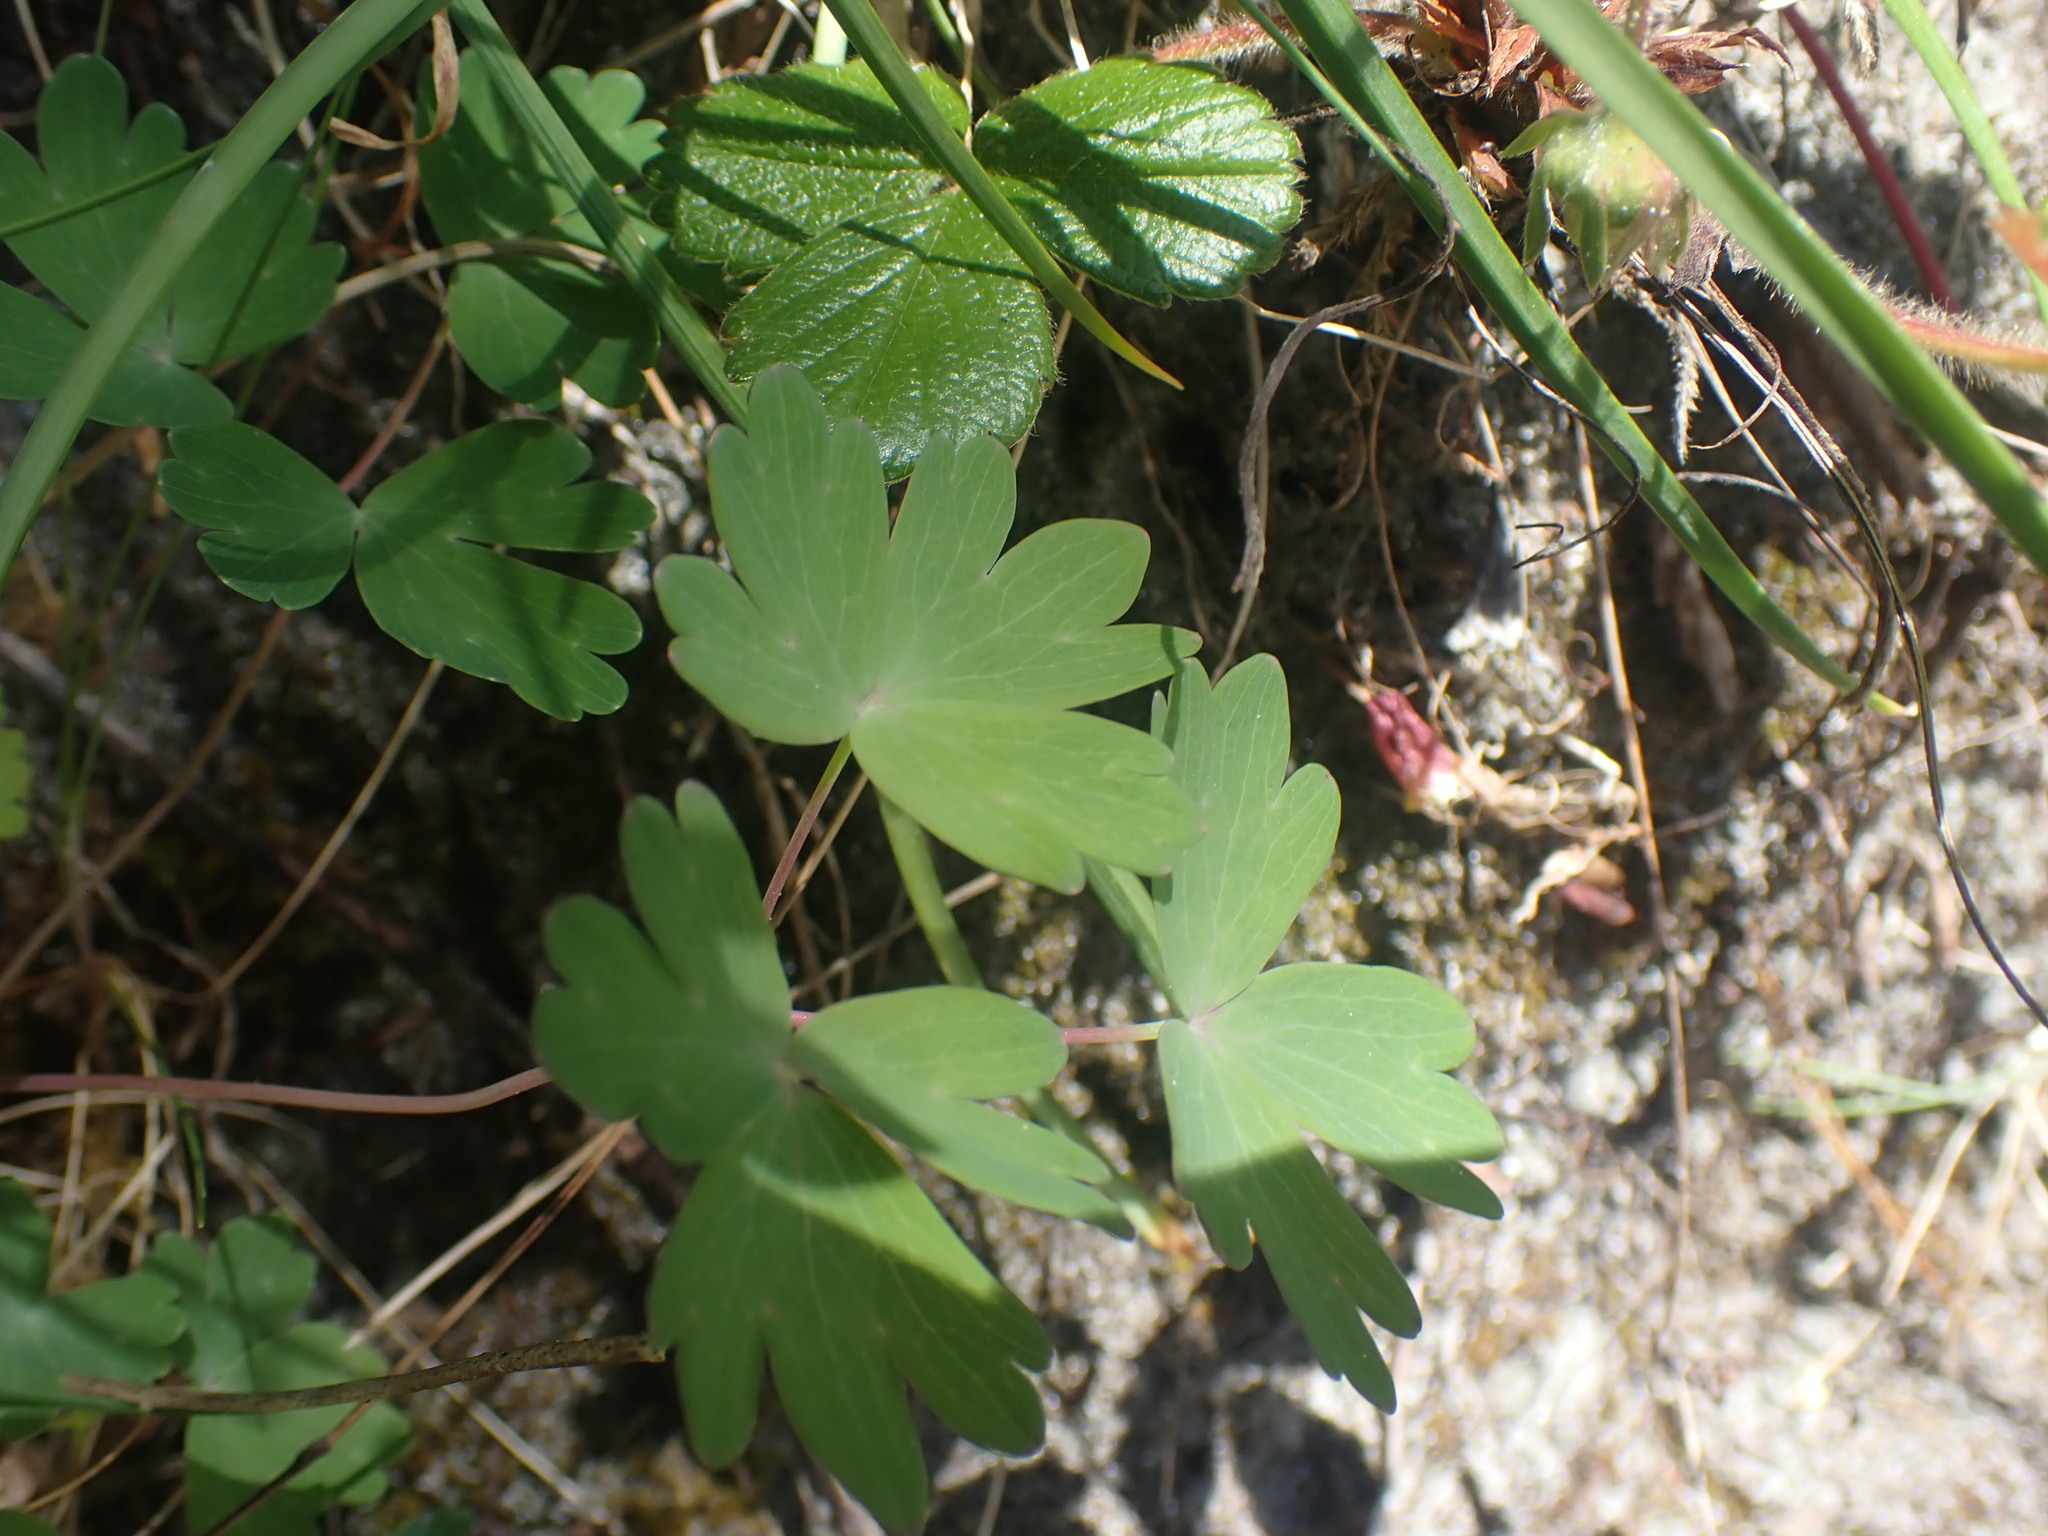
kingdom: Plantae
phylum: Tracheophyta
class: Magnoliopsida
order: Ranunculales
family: Ranunculaceae
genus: Aquilegia
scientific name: Aquilegia formosa
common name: Sitka columbine
